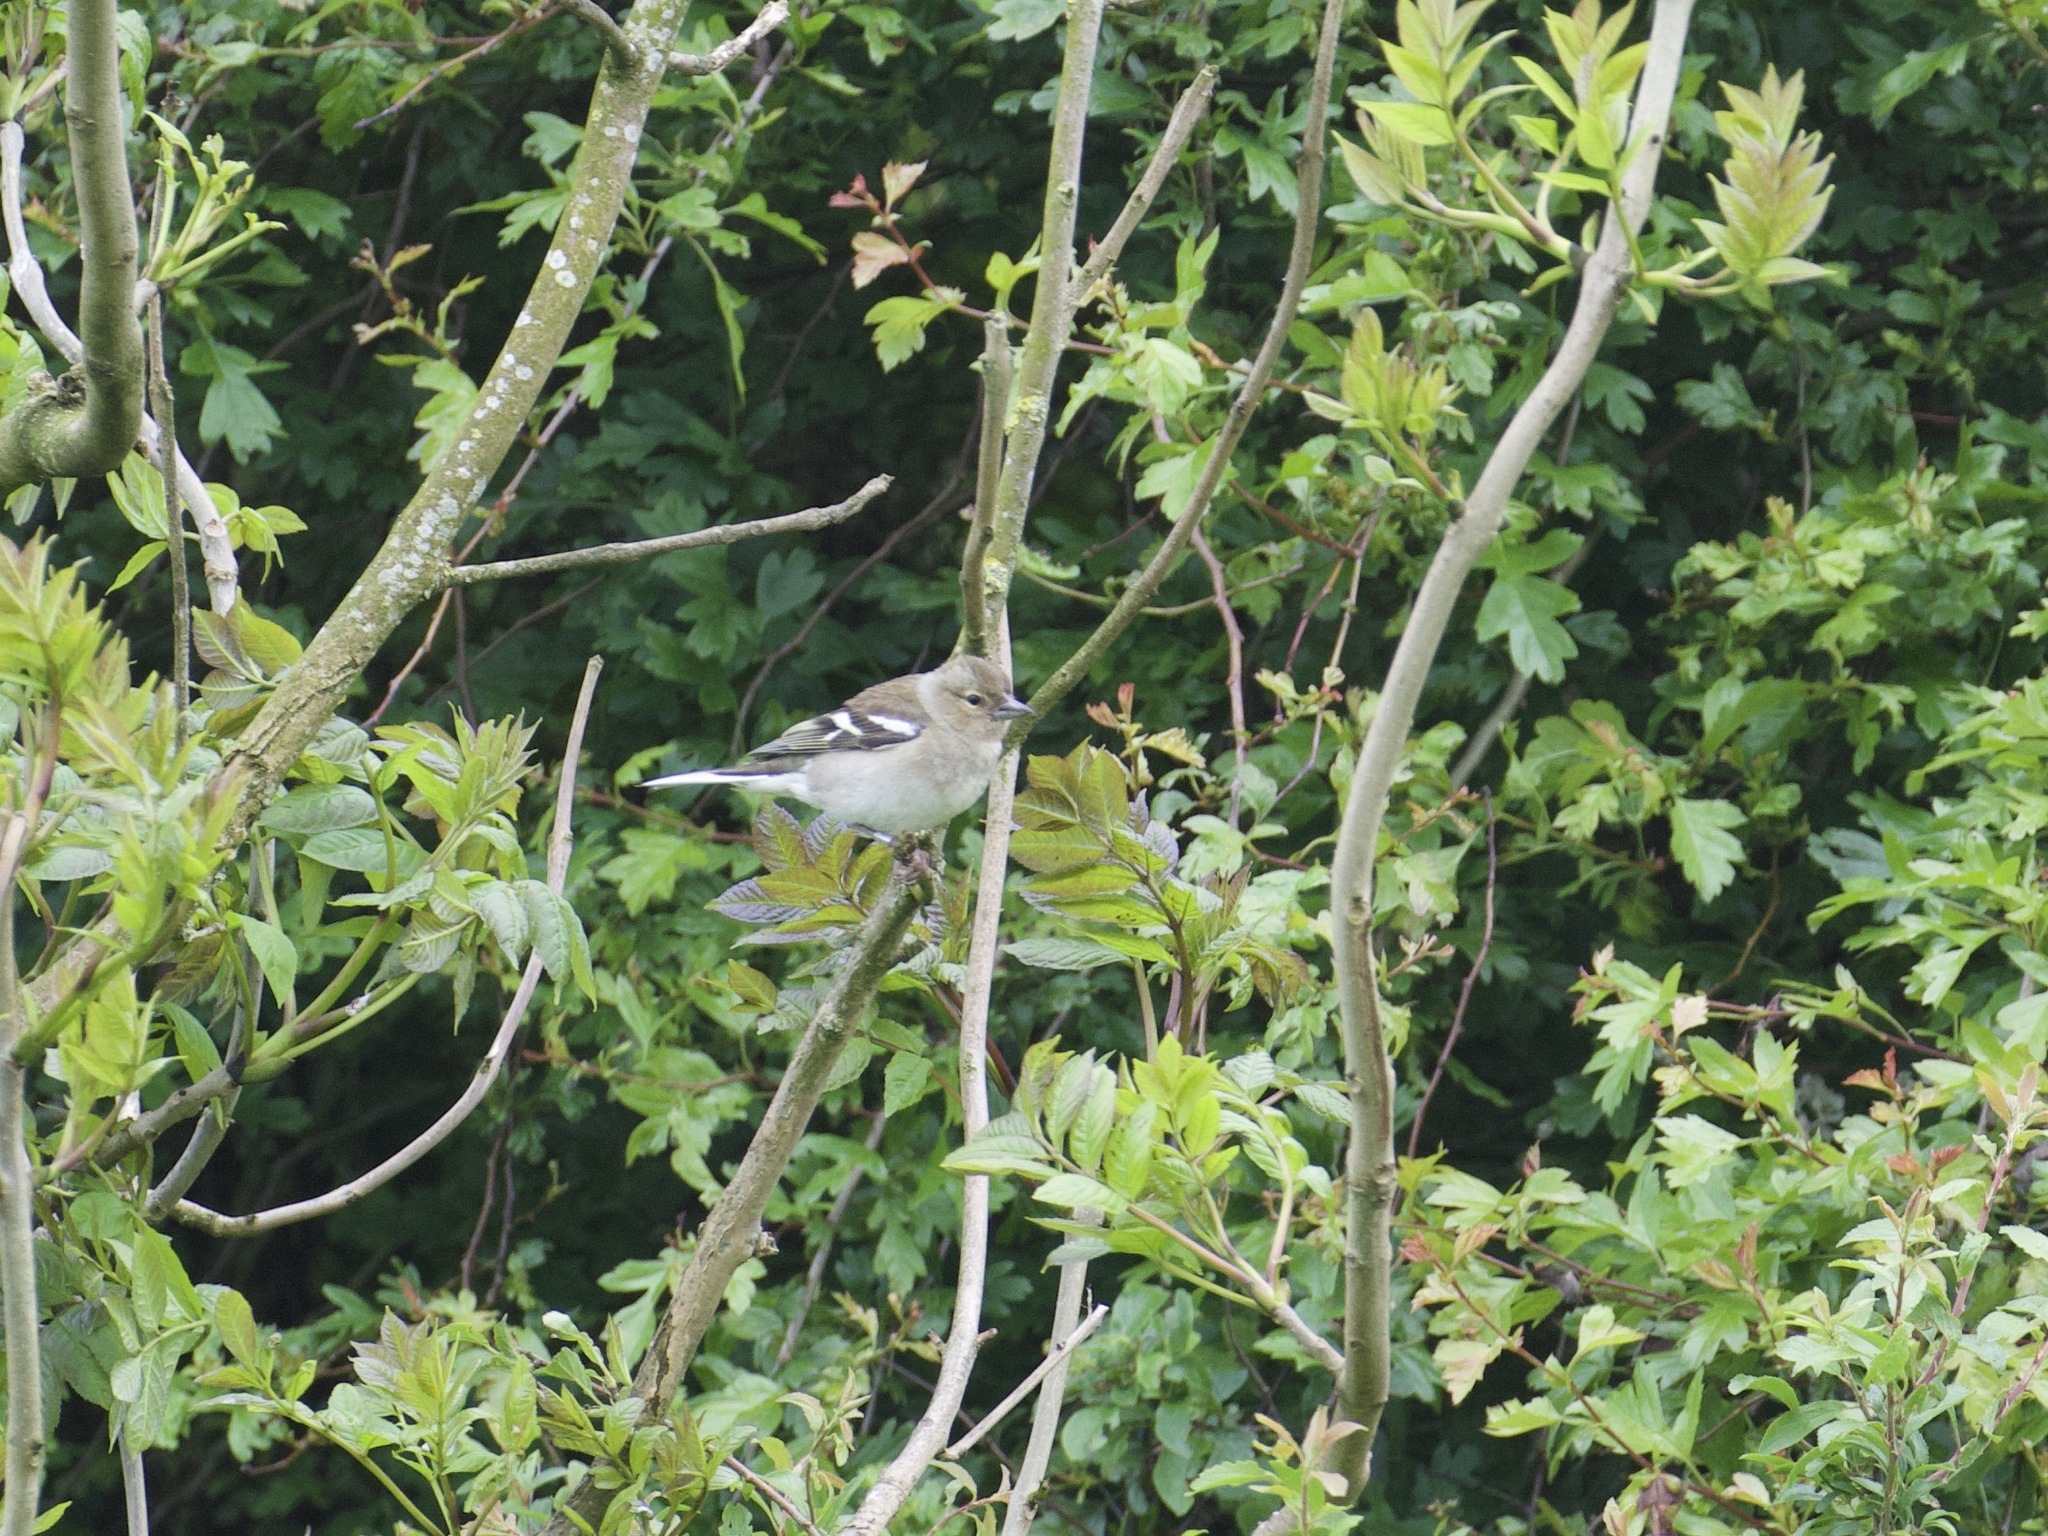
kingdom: Animalia
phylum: Chordata
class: Aves
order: Passeriformes
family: Fringillidae
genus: Fringilla
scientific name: Fringilla coelebs
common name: Common chaffinch
